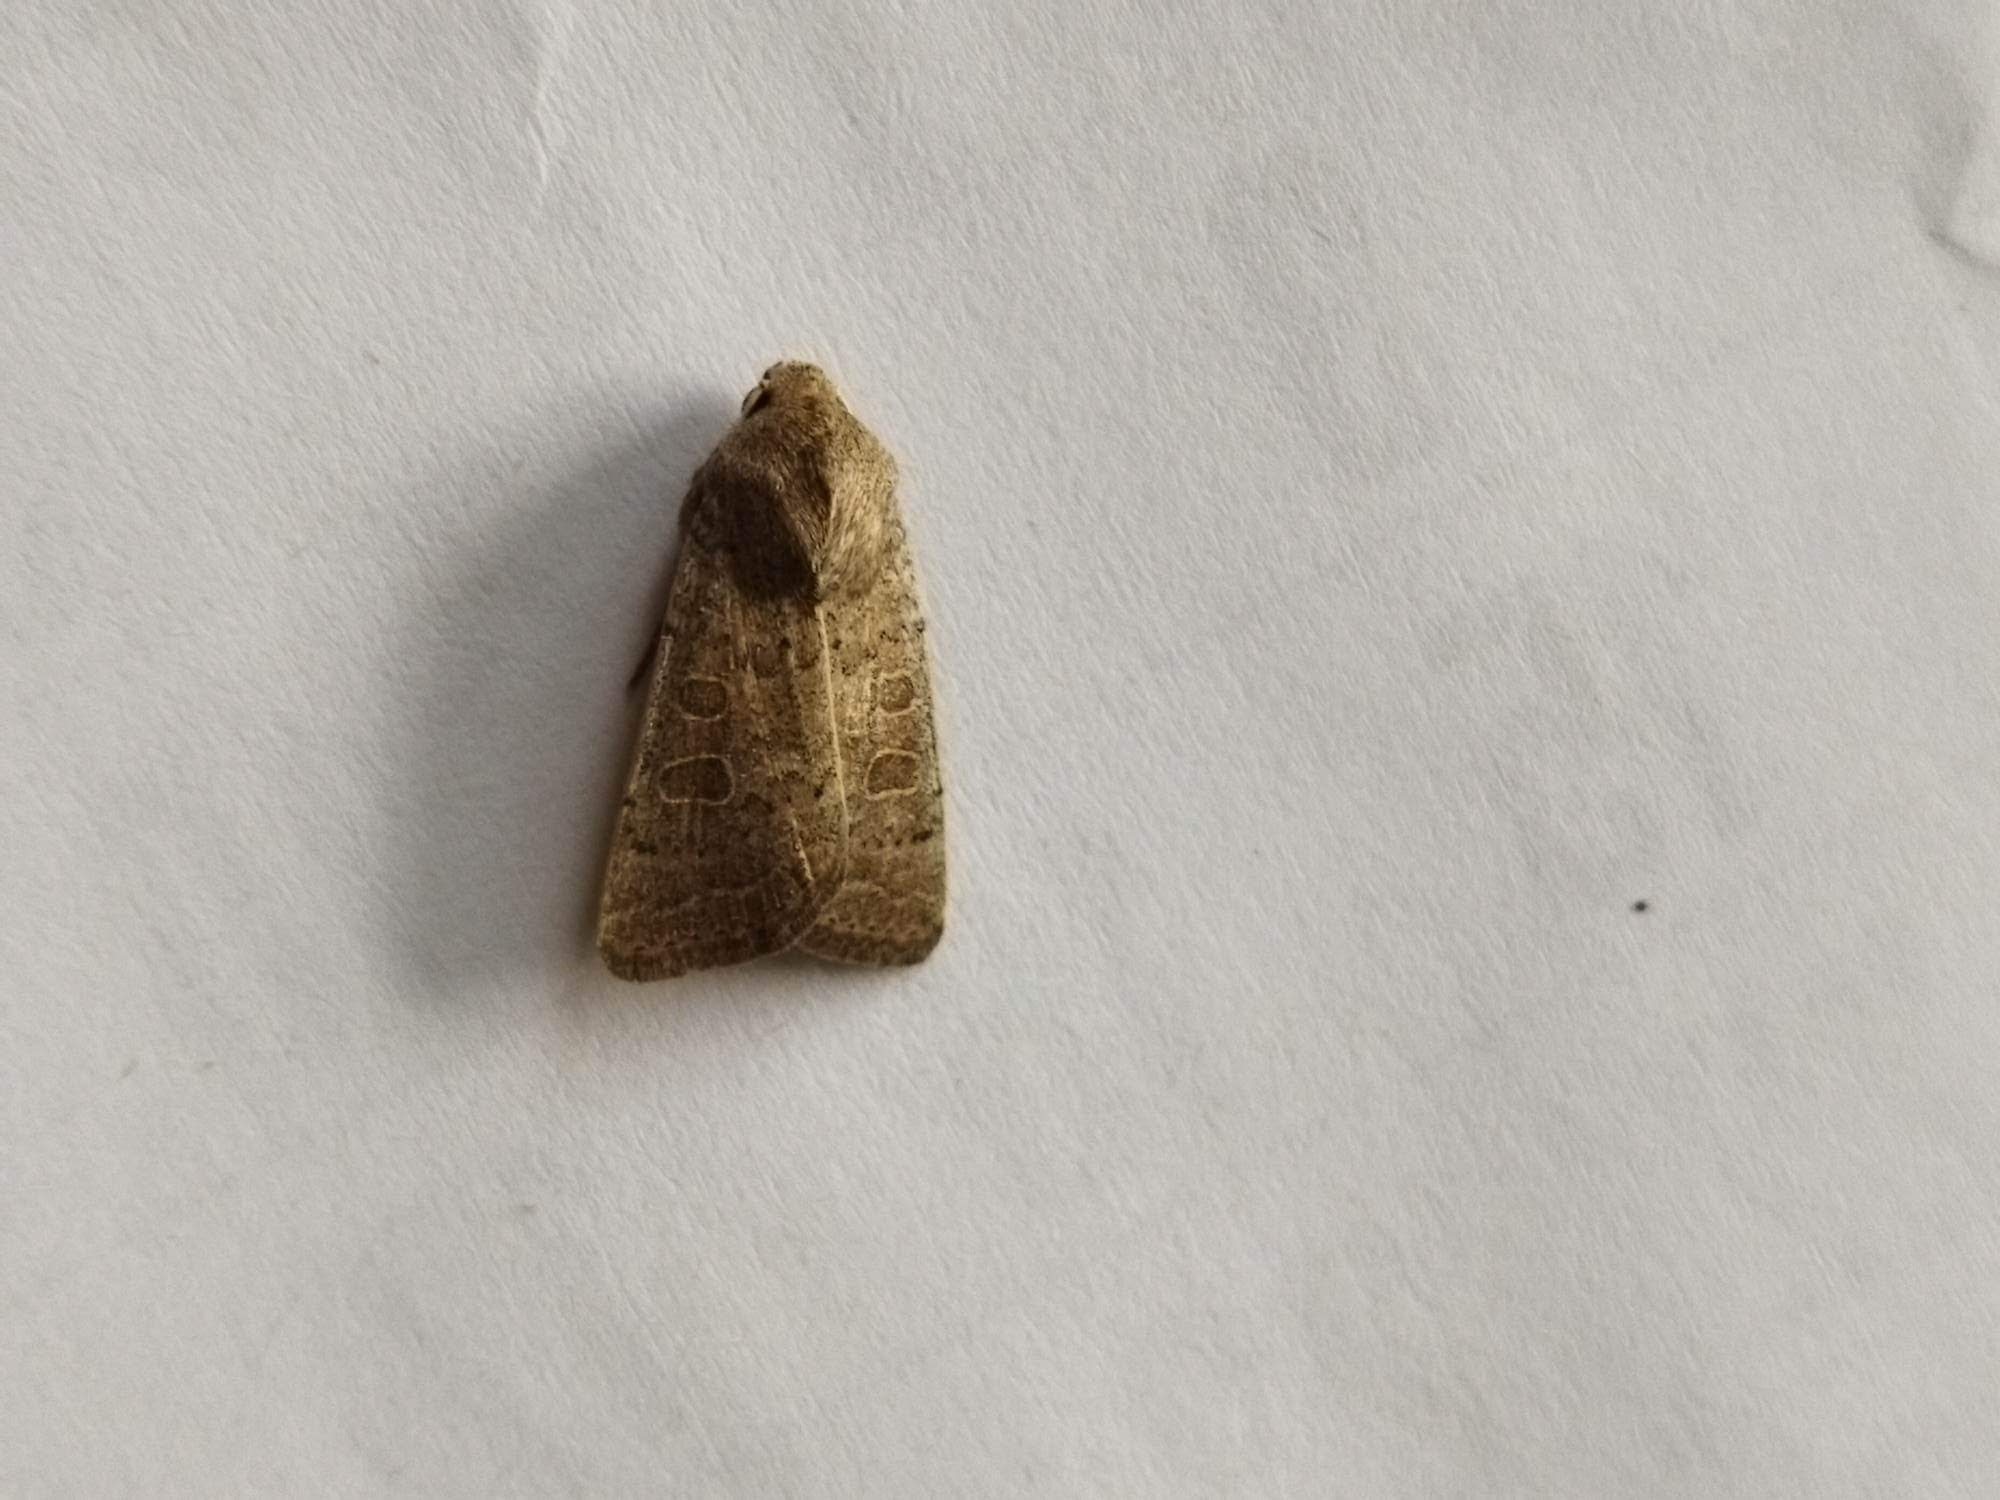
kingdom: Animalia
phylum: Arthropoda
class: Insecta
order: Lepidoptera
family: Noctuidae
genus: Hoplodrina
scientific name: Hoplodrina ambigua
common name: Vine's rustic
